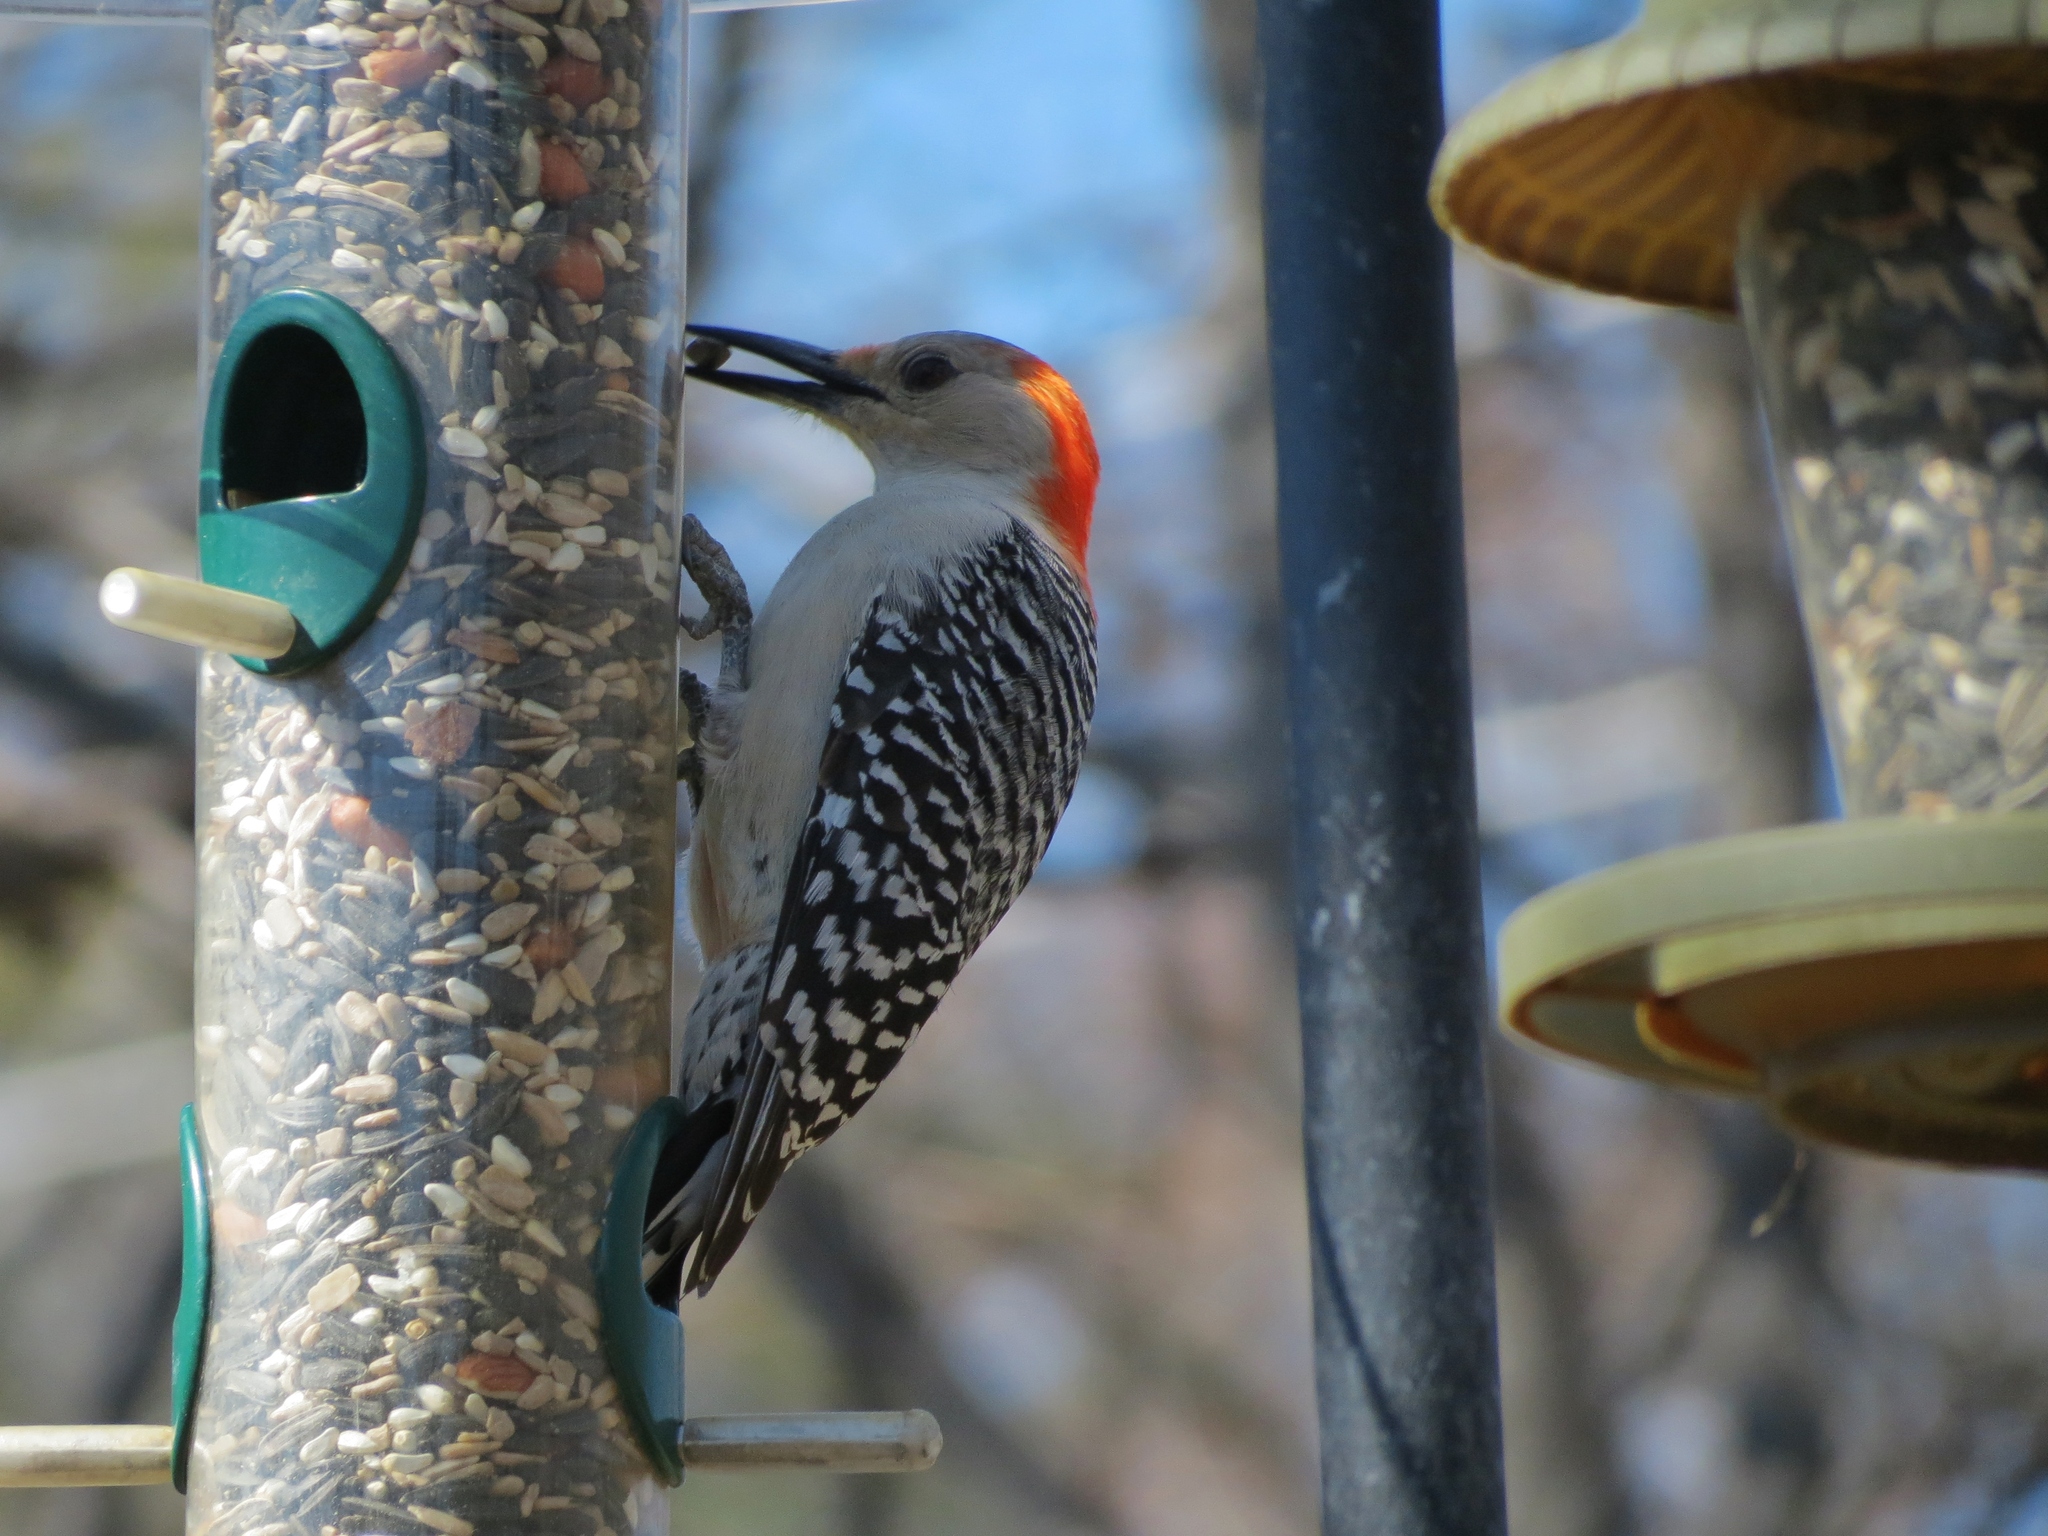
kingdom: Animalia
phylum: Chordata
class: Aves
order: Piciformes
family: Picidae
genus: Melanerpes
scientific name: Melanerpes carolinus
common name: Red-bellied woodpecker
